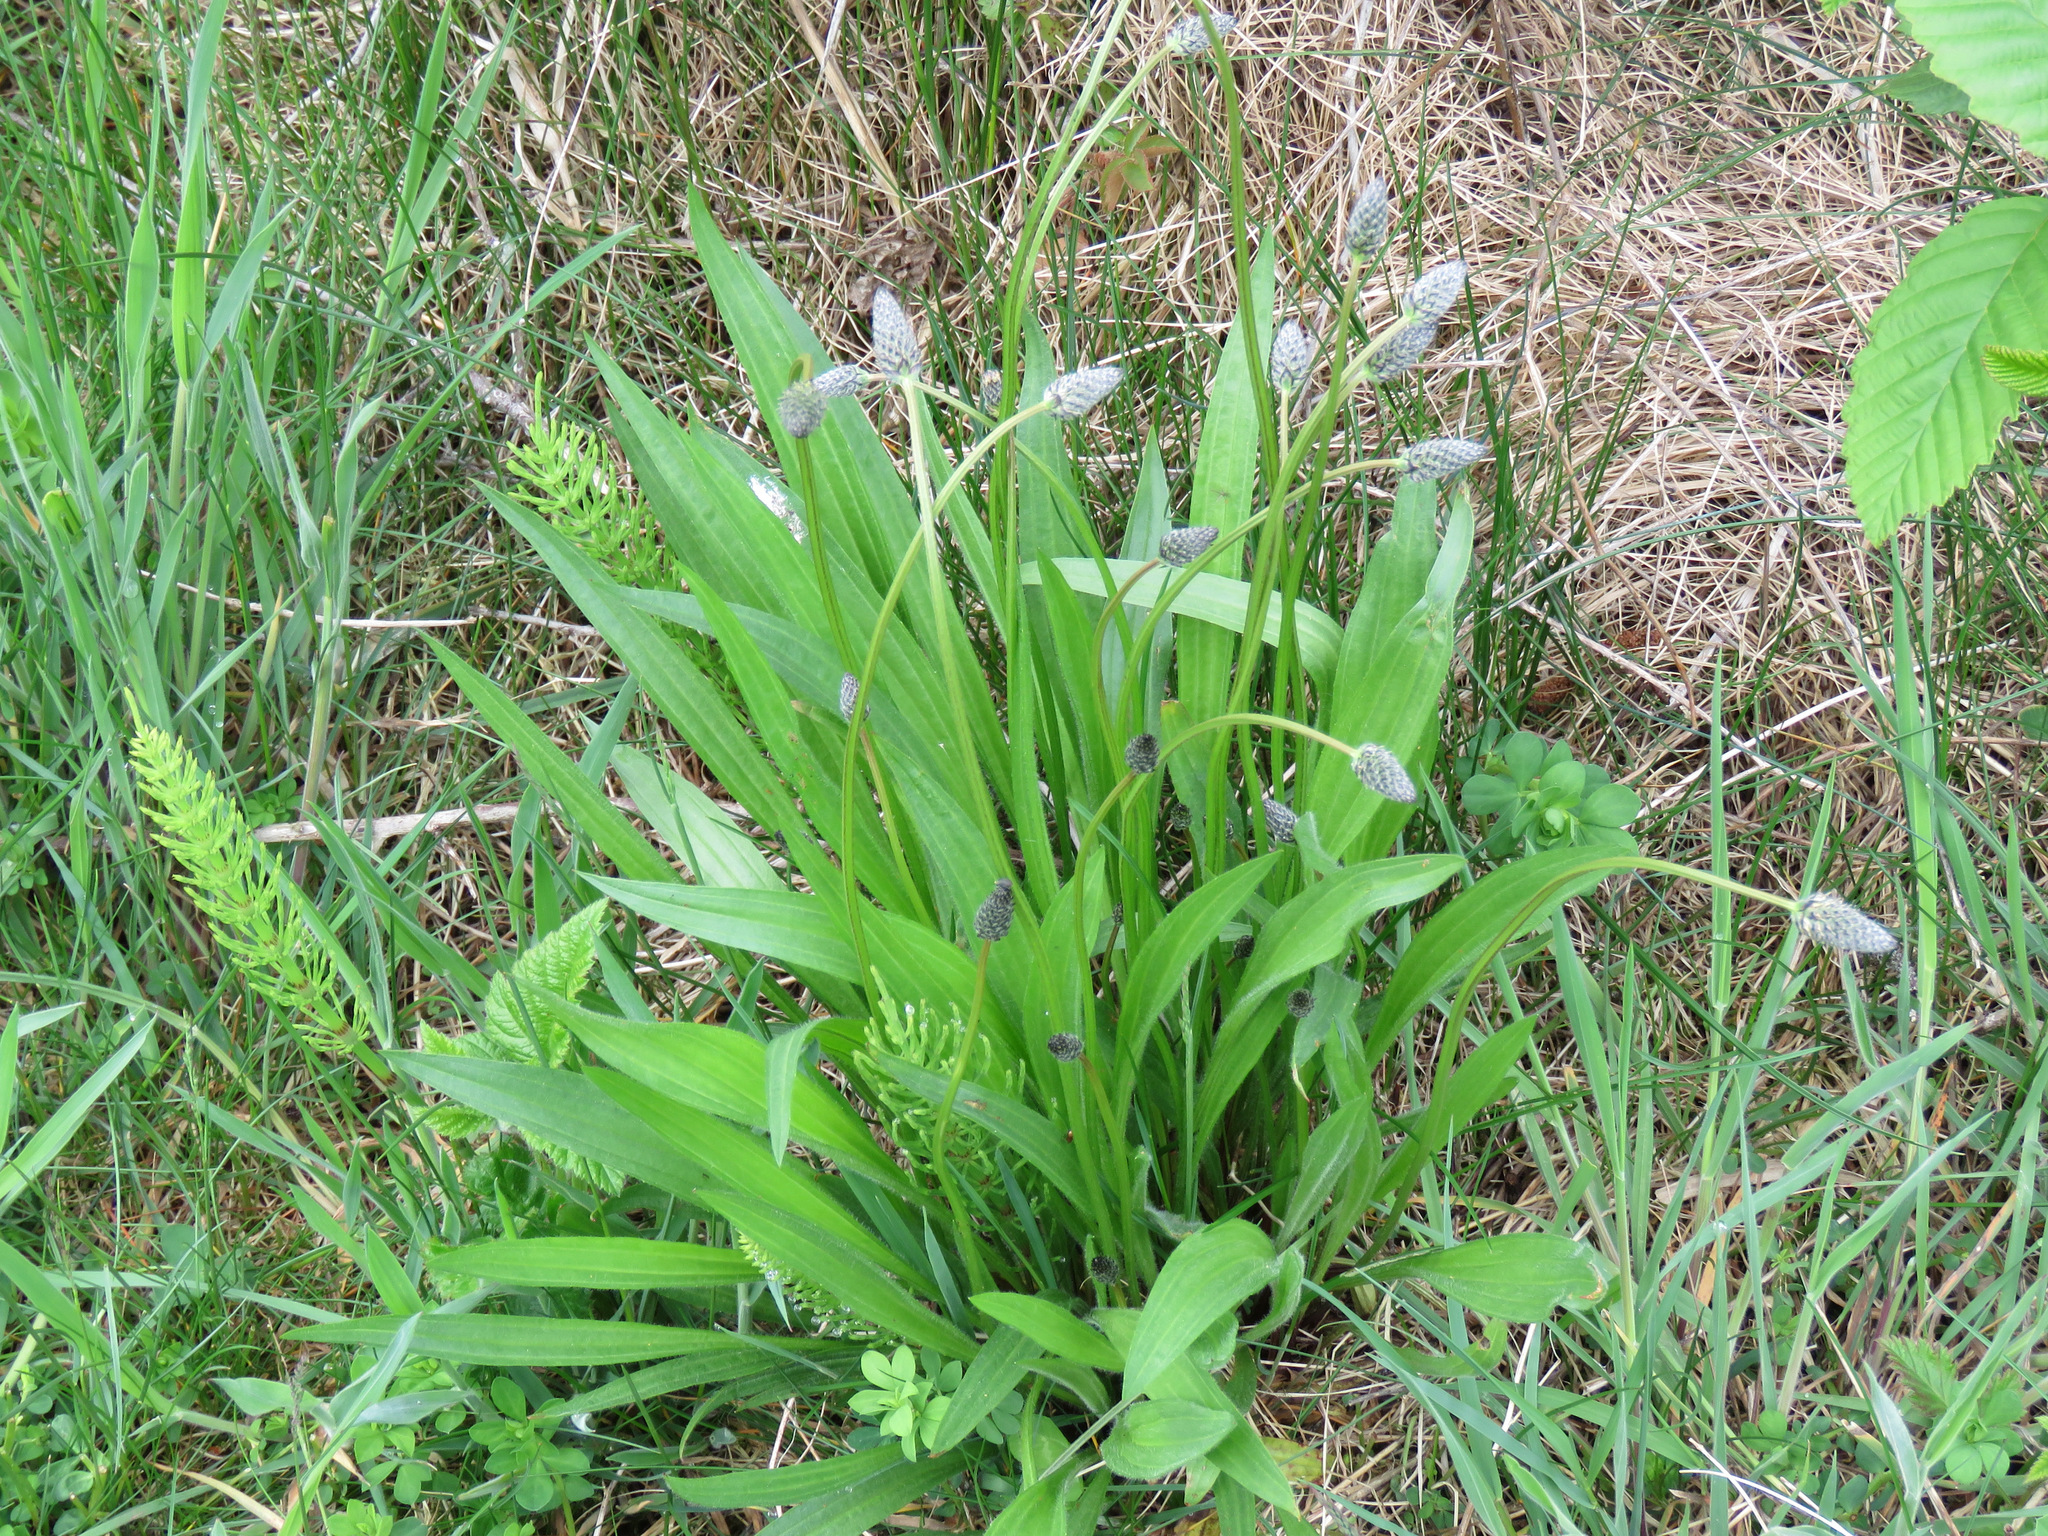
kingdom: Plantae
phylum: Tracheophyta
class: Magnoliopsida
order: Lamiales
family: Plantaginaceae
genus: Plantago
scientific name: Plantago lanceolata
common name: Ribwort plantain
